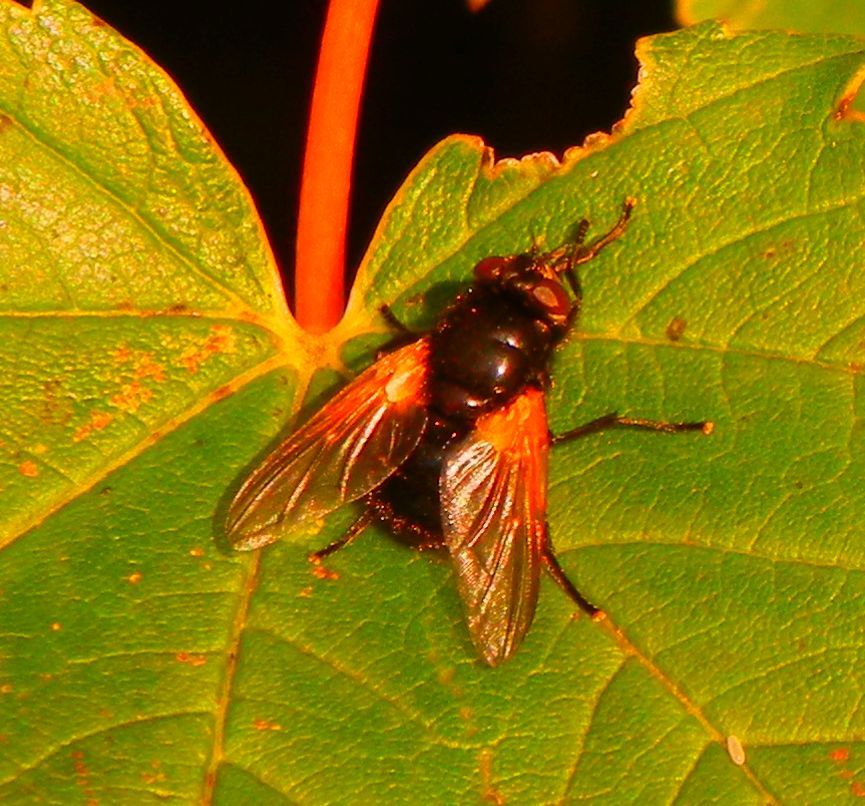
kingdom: Animalia
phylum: Arthropoda
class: Insecta
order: Diptera
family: Muscidae
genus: Mesembrina
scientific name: Mesembrina meridiana
